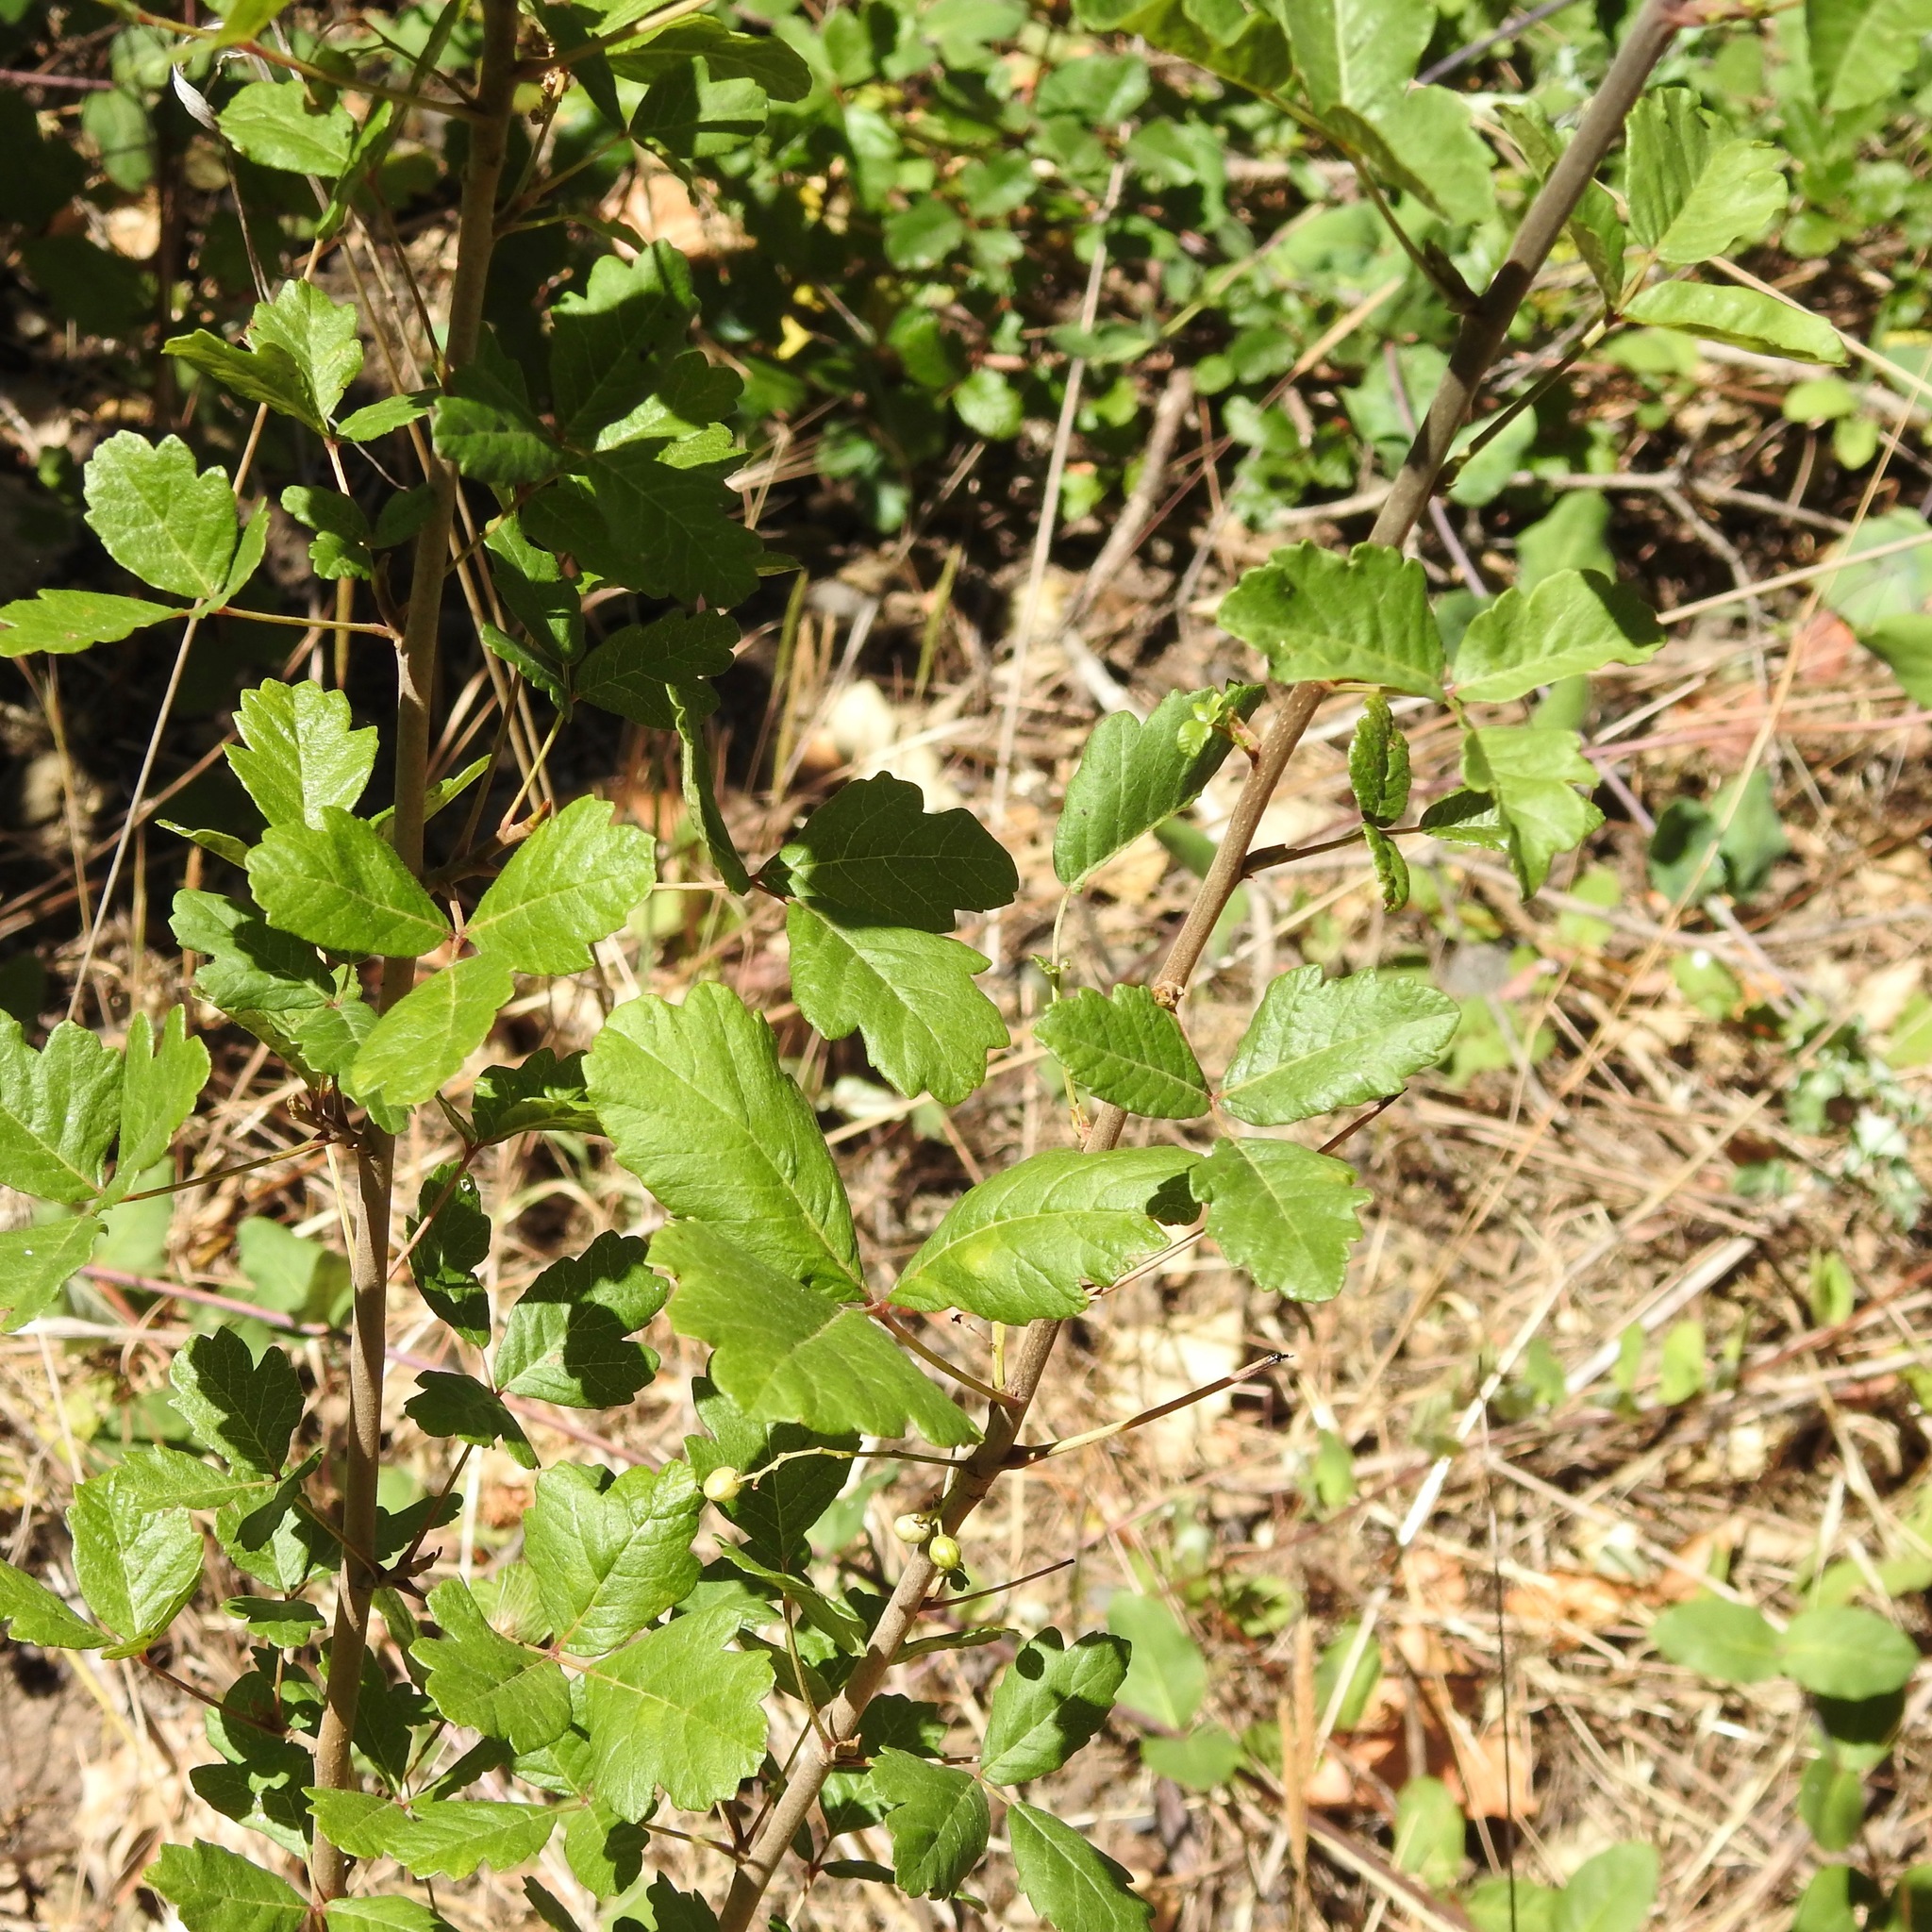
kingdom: Plantae
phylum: Tracheophyta
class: Magnoliopsida
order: Sapindales
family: Anacardiaceae
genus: Toxicodendron
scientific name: Toxicodendron diversilobum
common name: Pacific poison-oak
